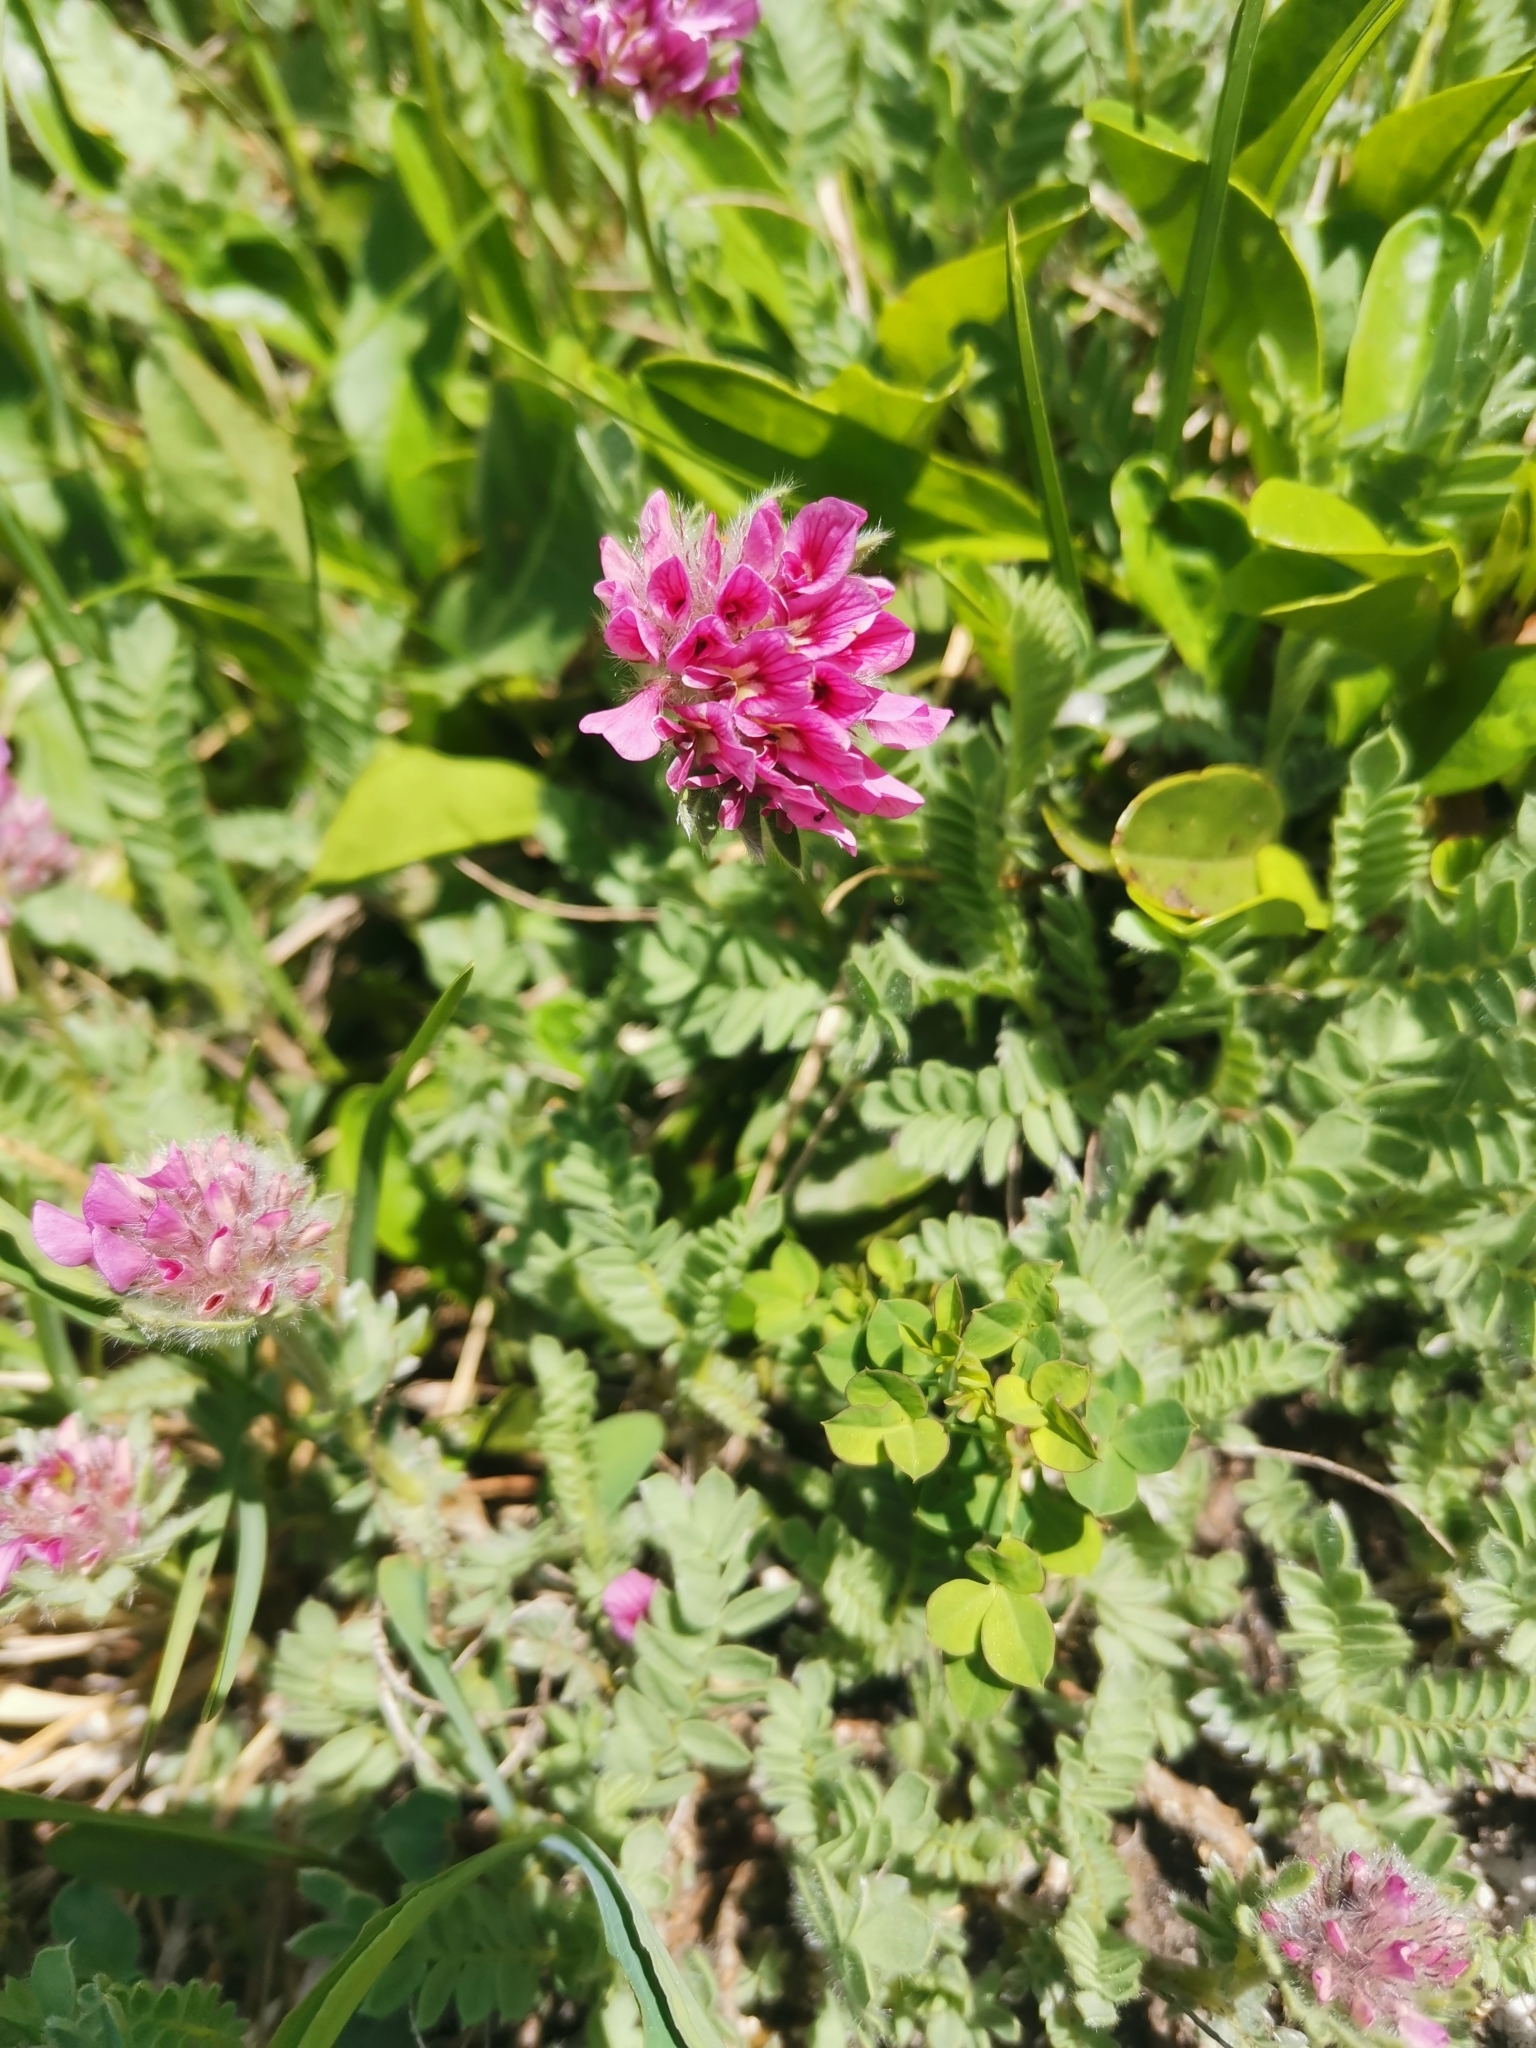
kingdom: Plantae
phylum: Tracheophyta
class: Magnoliopsida
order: Fabales
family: Fabaceae
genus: Anthyllis
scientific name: Anthyllis montana
